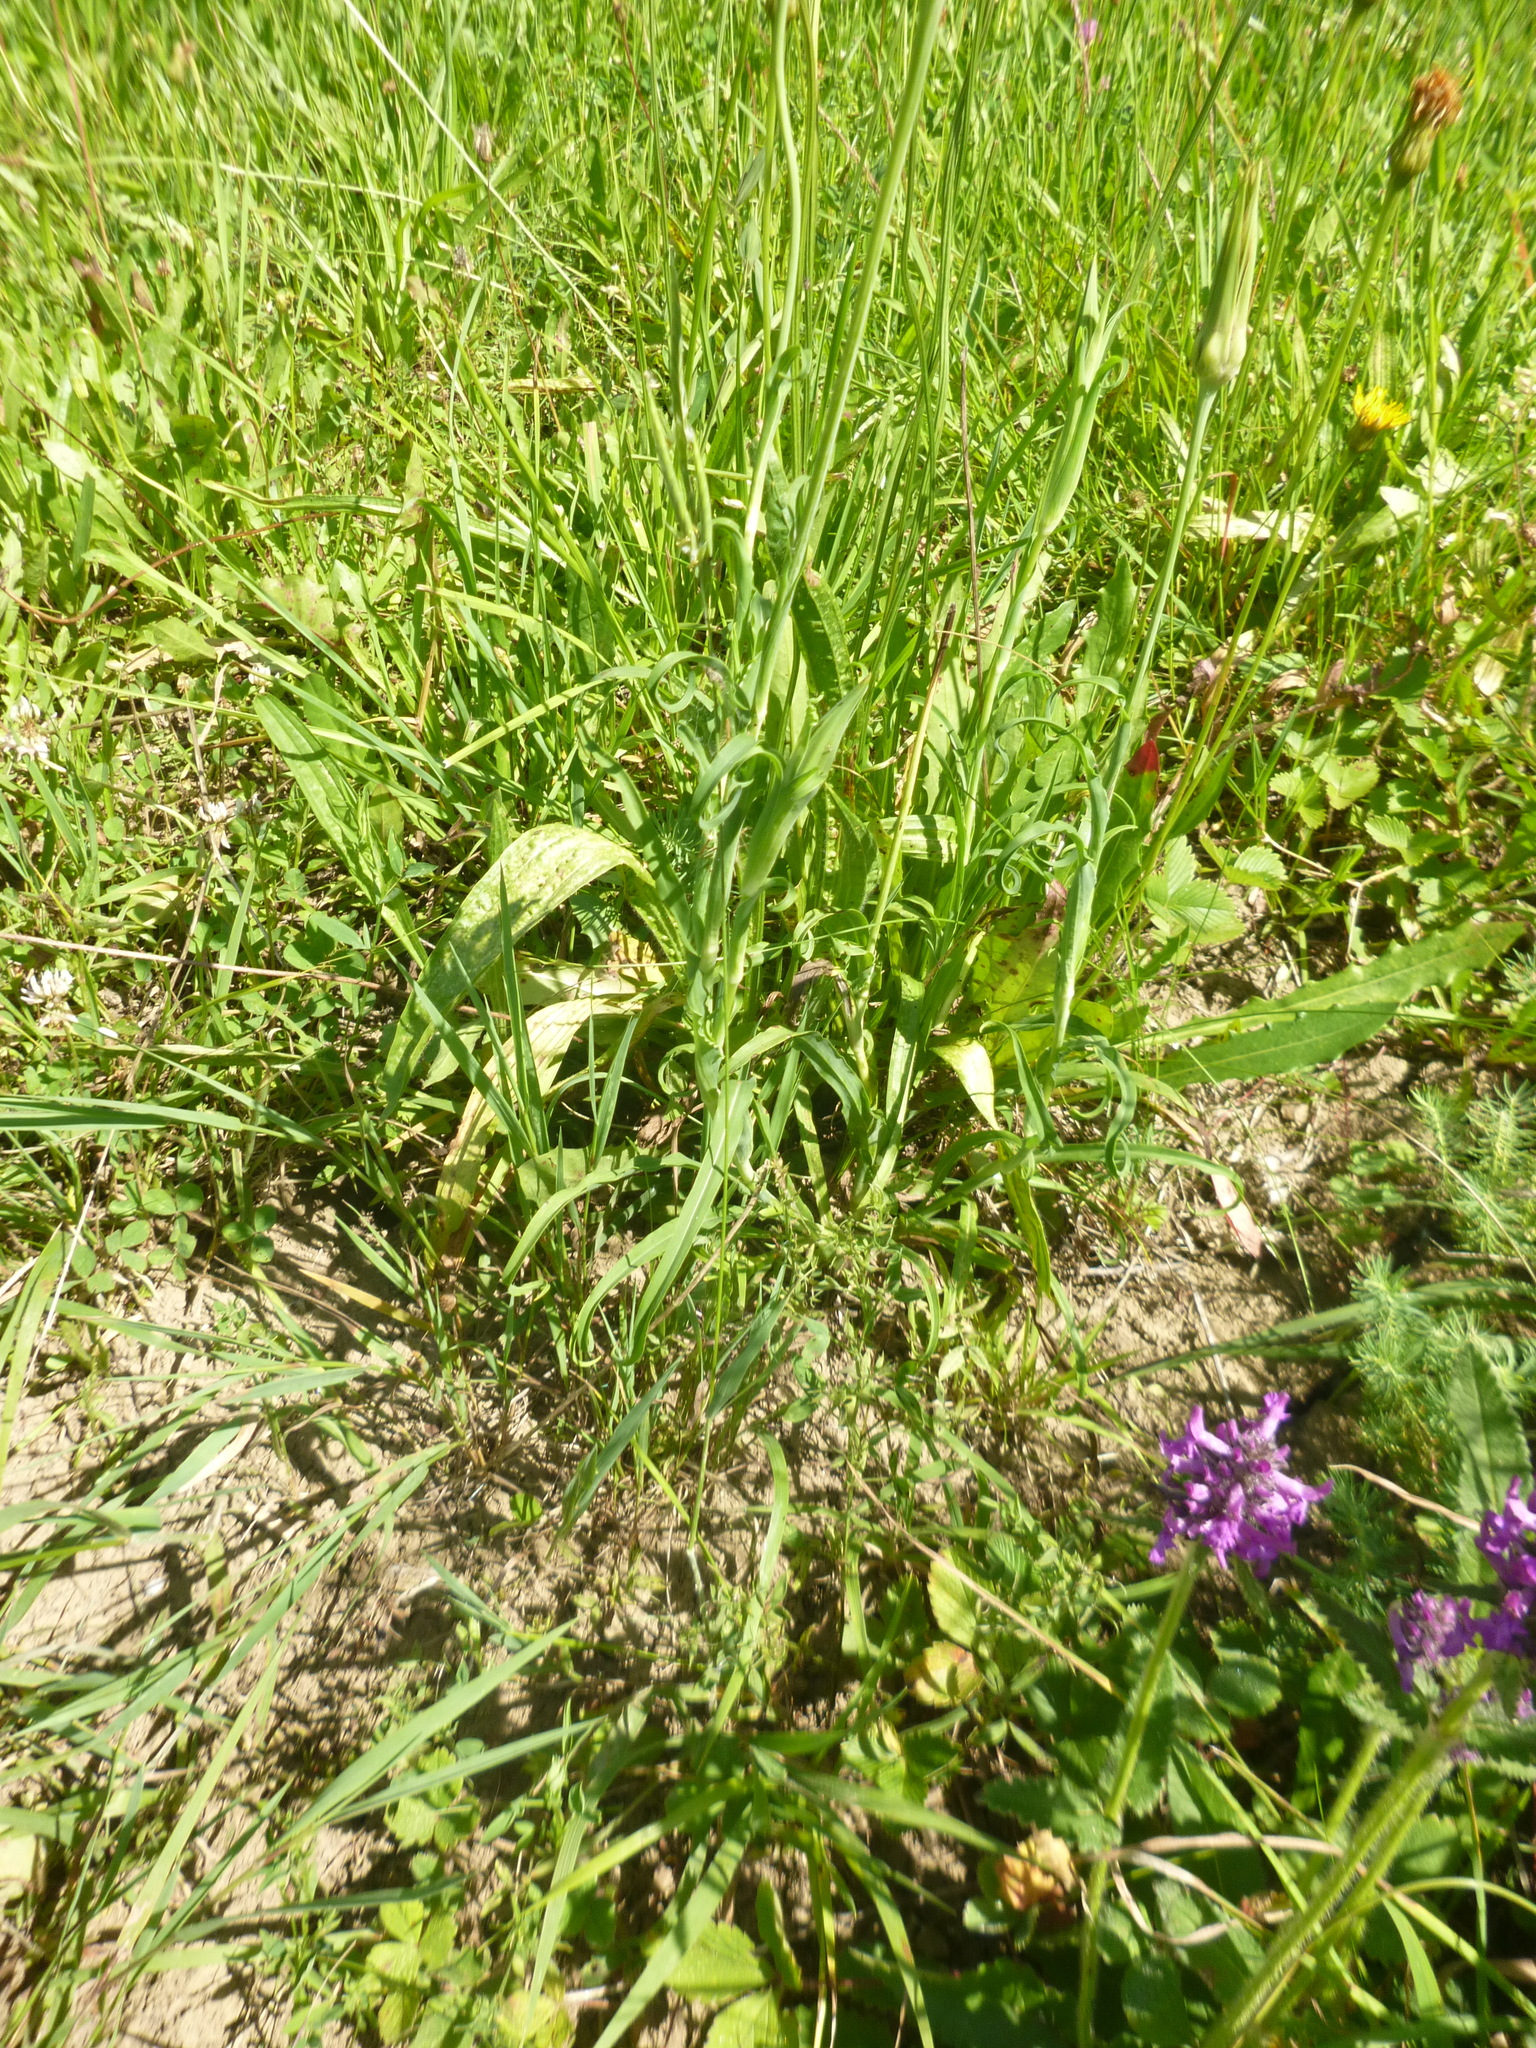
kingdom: Plantae
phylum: Tracheophyta
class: Magnoliopsida
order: Asterales
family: Asteraceae
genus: Tragopogon
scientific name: Tragopogon orientalis
